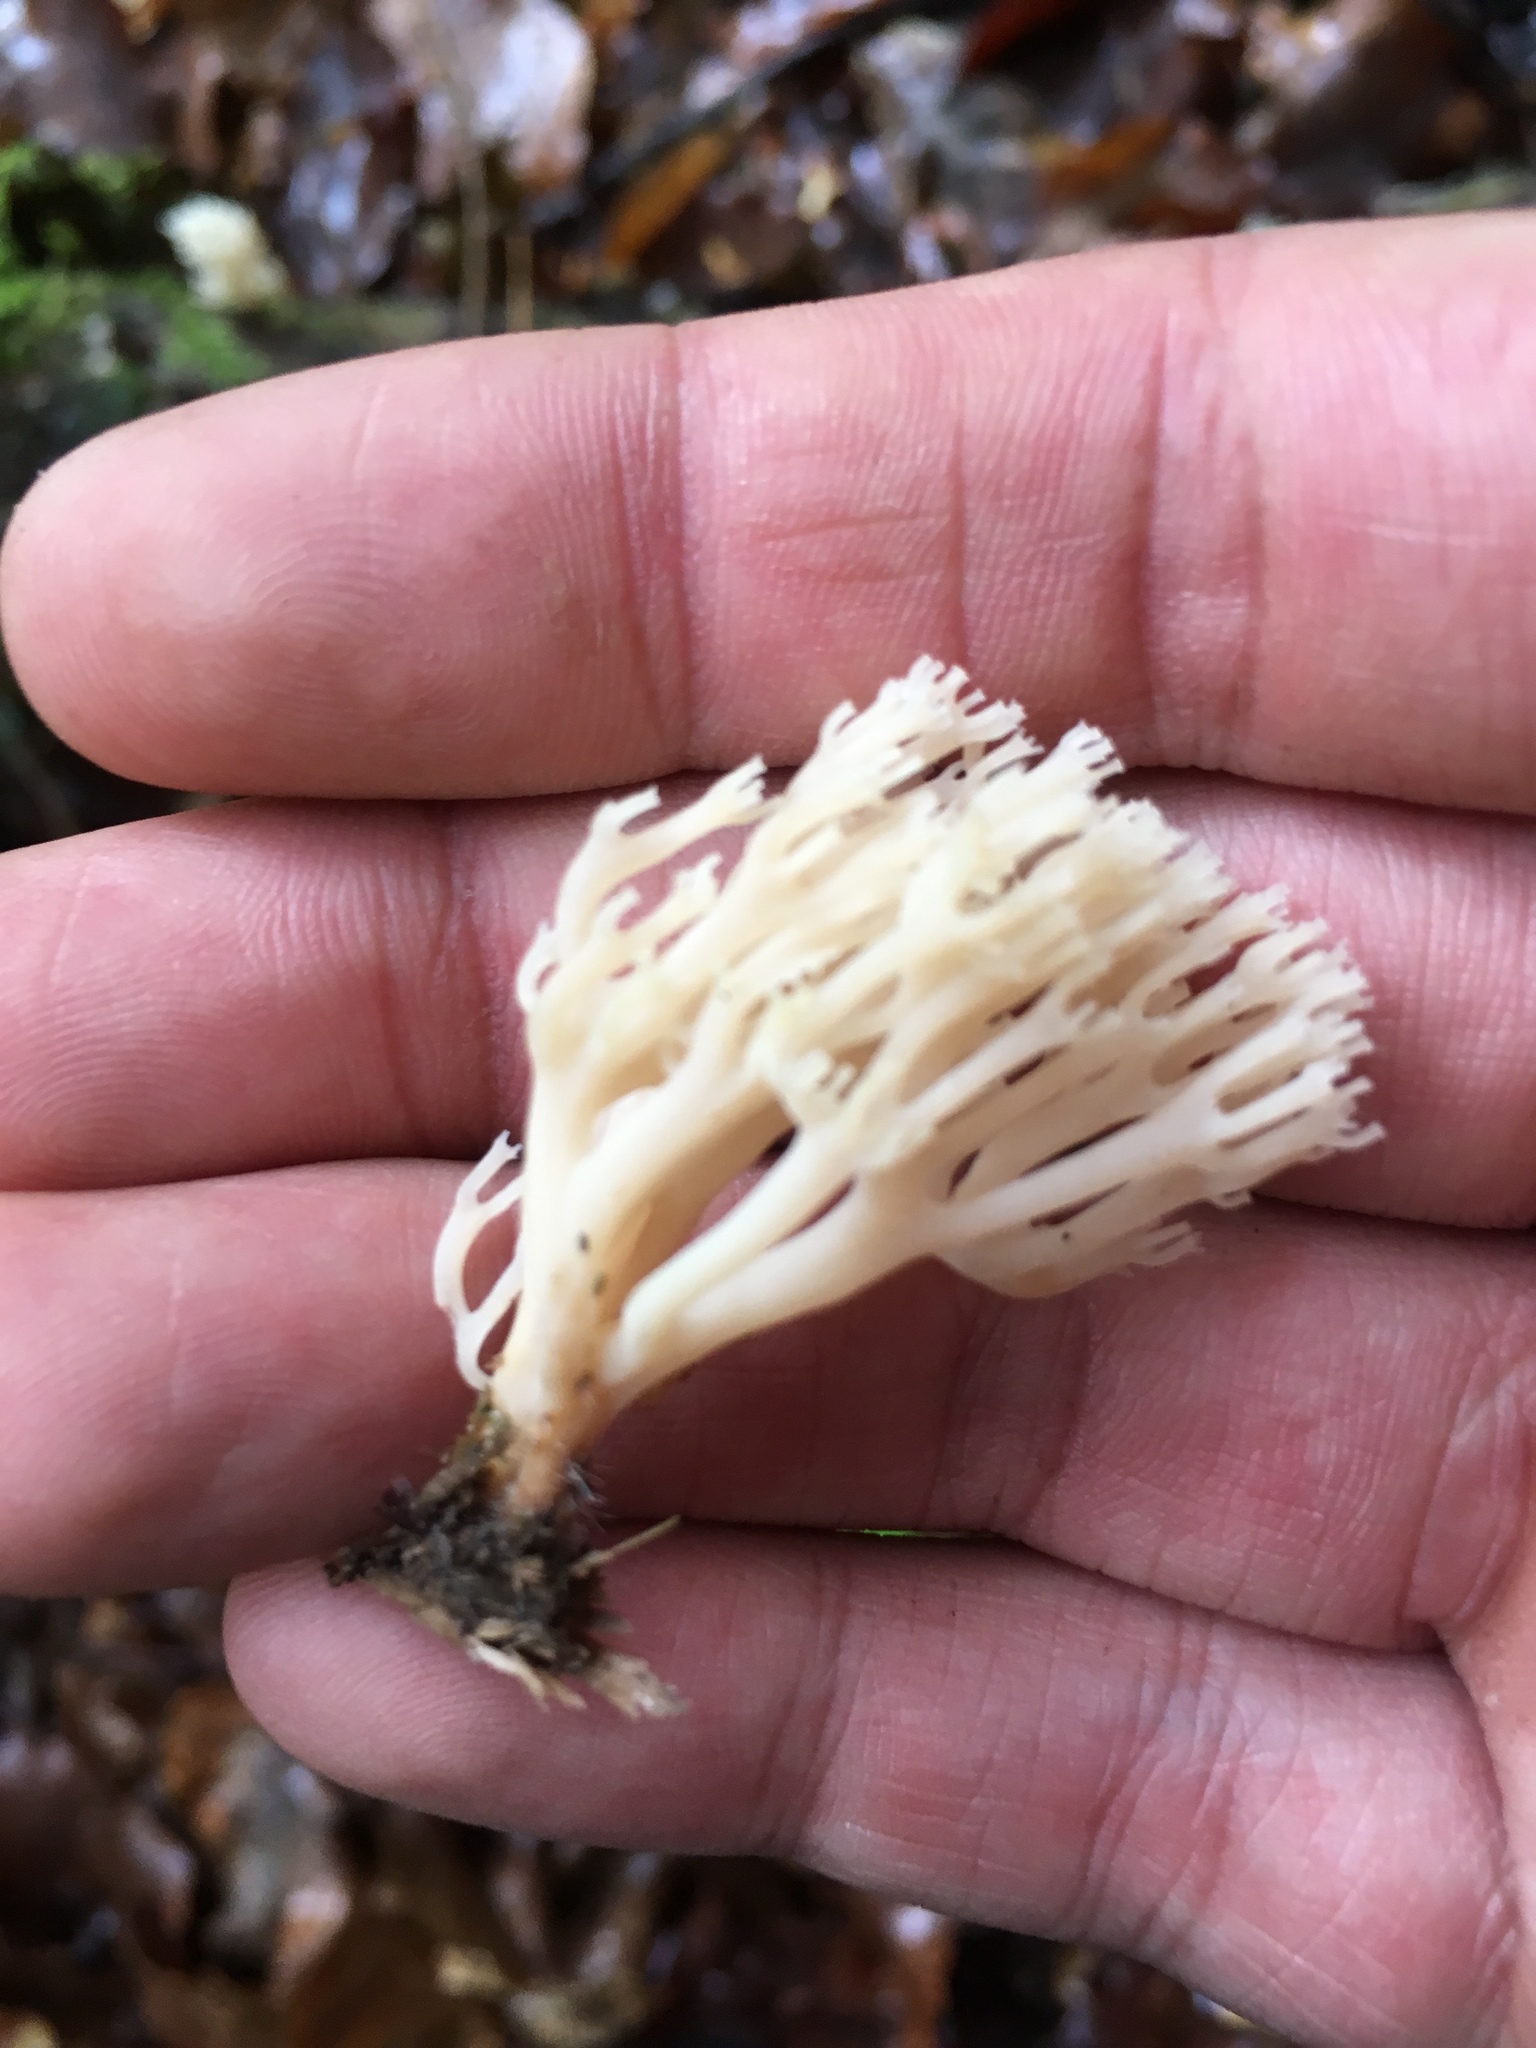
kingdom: Fungi
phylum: Basidiomycota
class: Agaricomycetes
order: Russulales
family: Auriscalpiaceae
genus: Artomyces
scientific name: Artomyces pyxidatus
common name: Crown-tipped coral fungus
